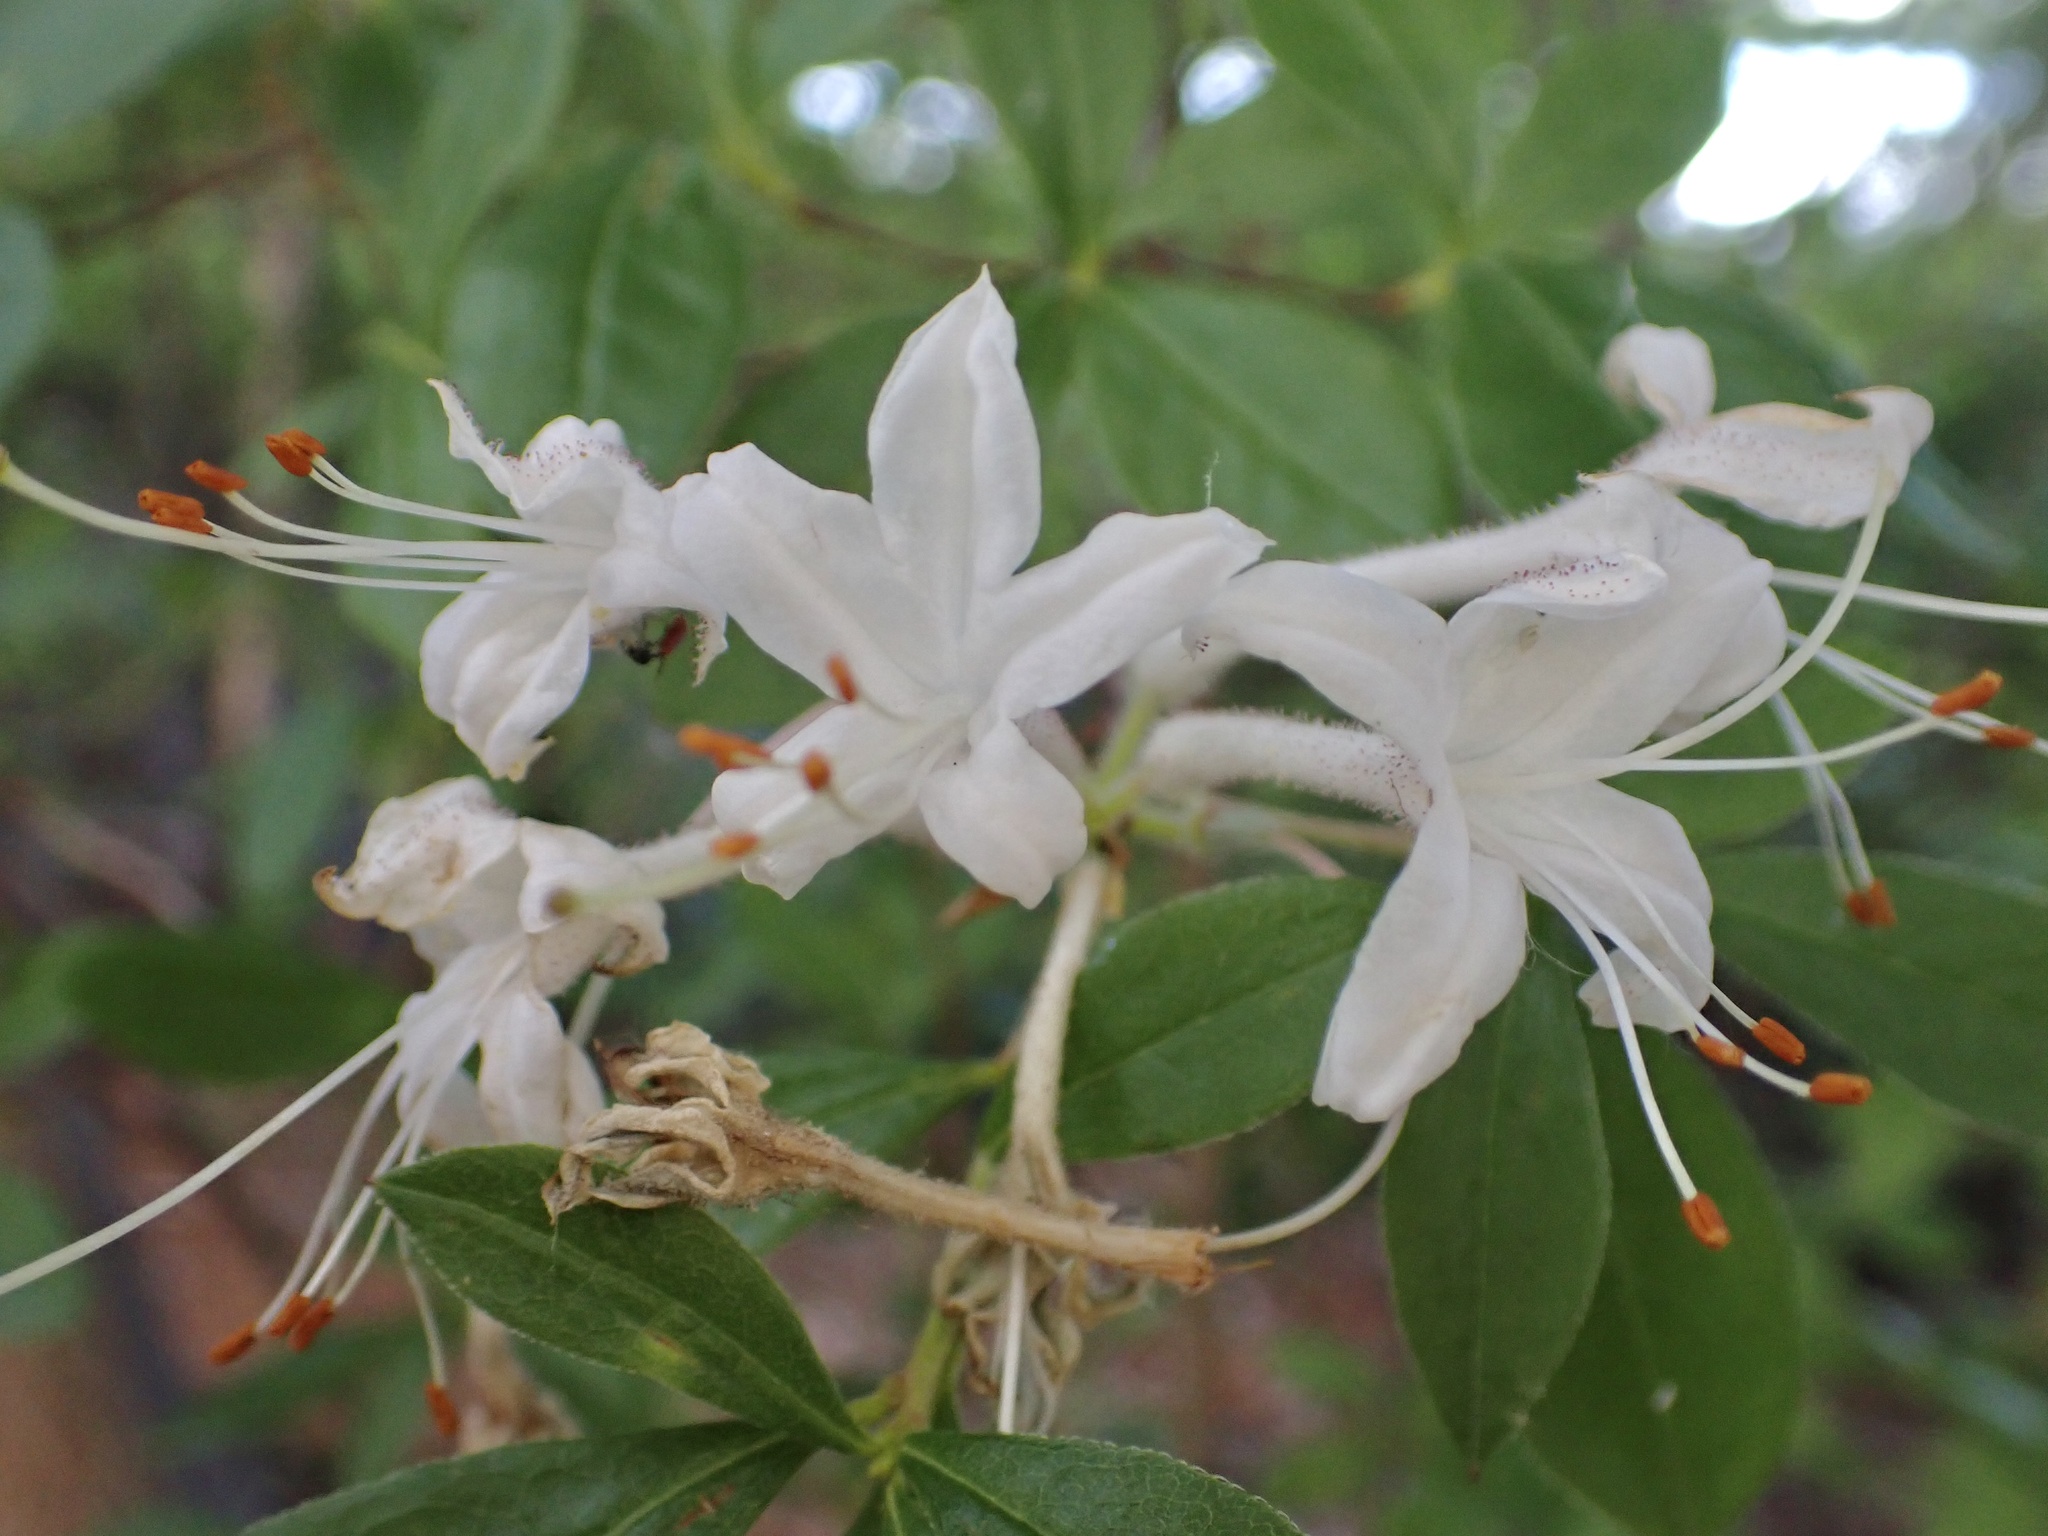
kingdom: Plantae
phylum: Tracheophyta
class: Magnoliopsida
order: Ericales
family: Ericaceae
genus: Rhododendron
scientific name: Rhododendron viscosum
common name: Clammy azalea
